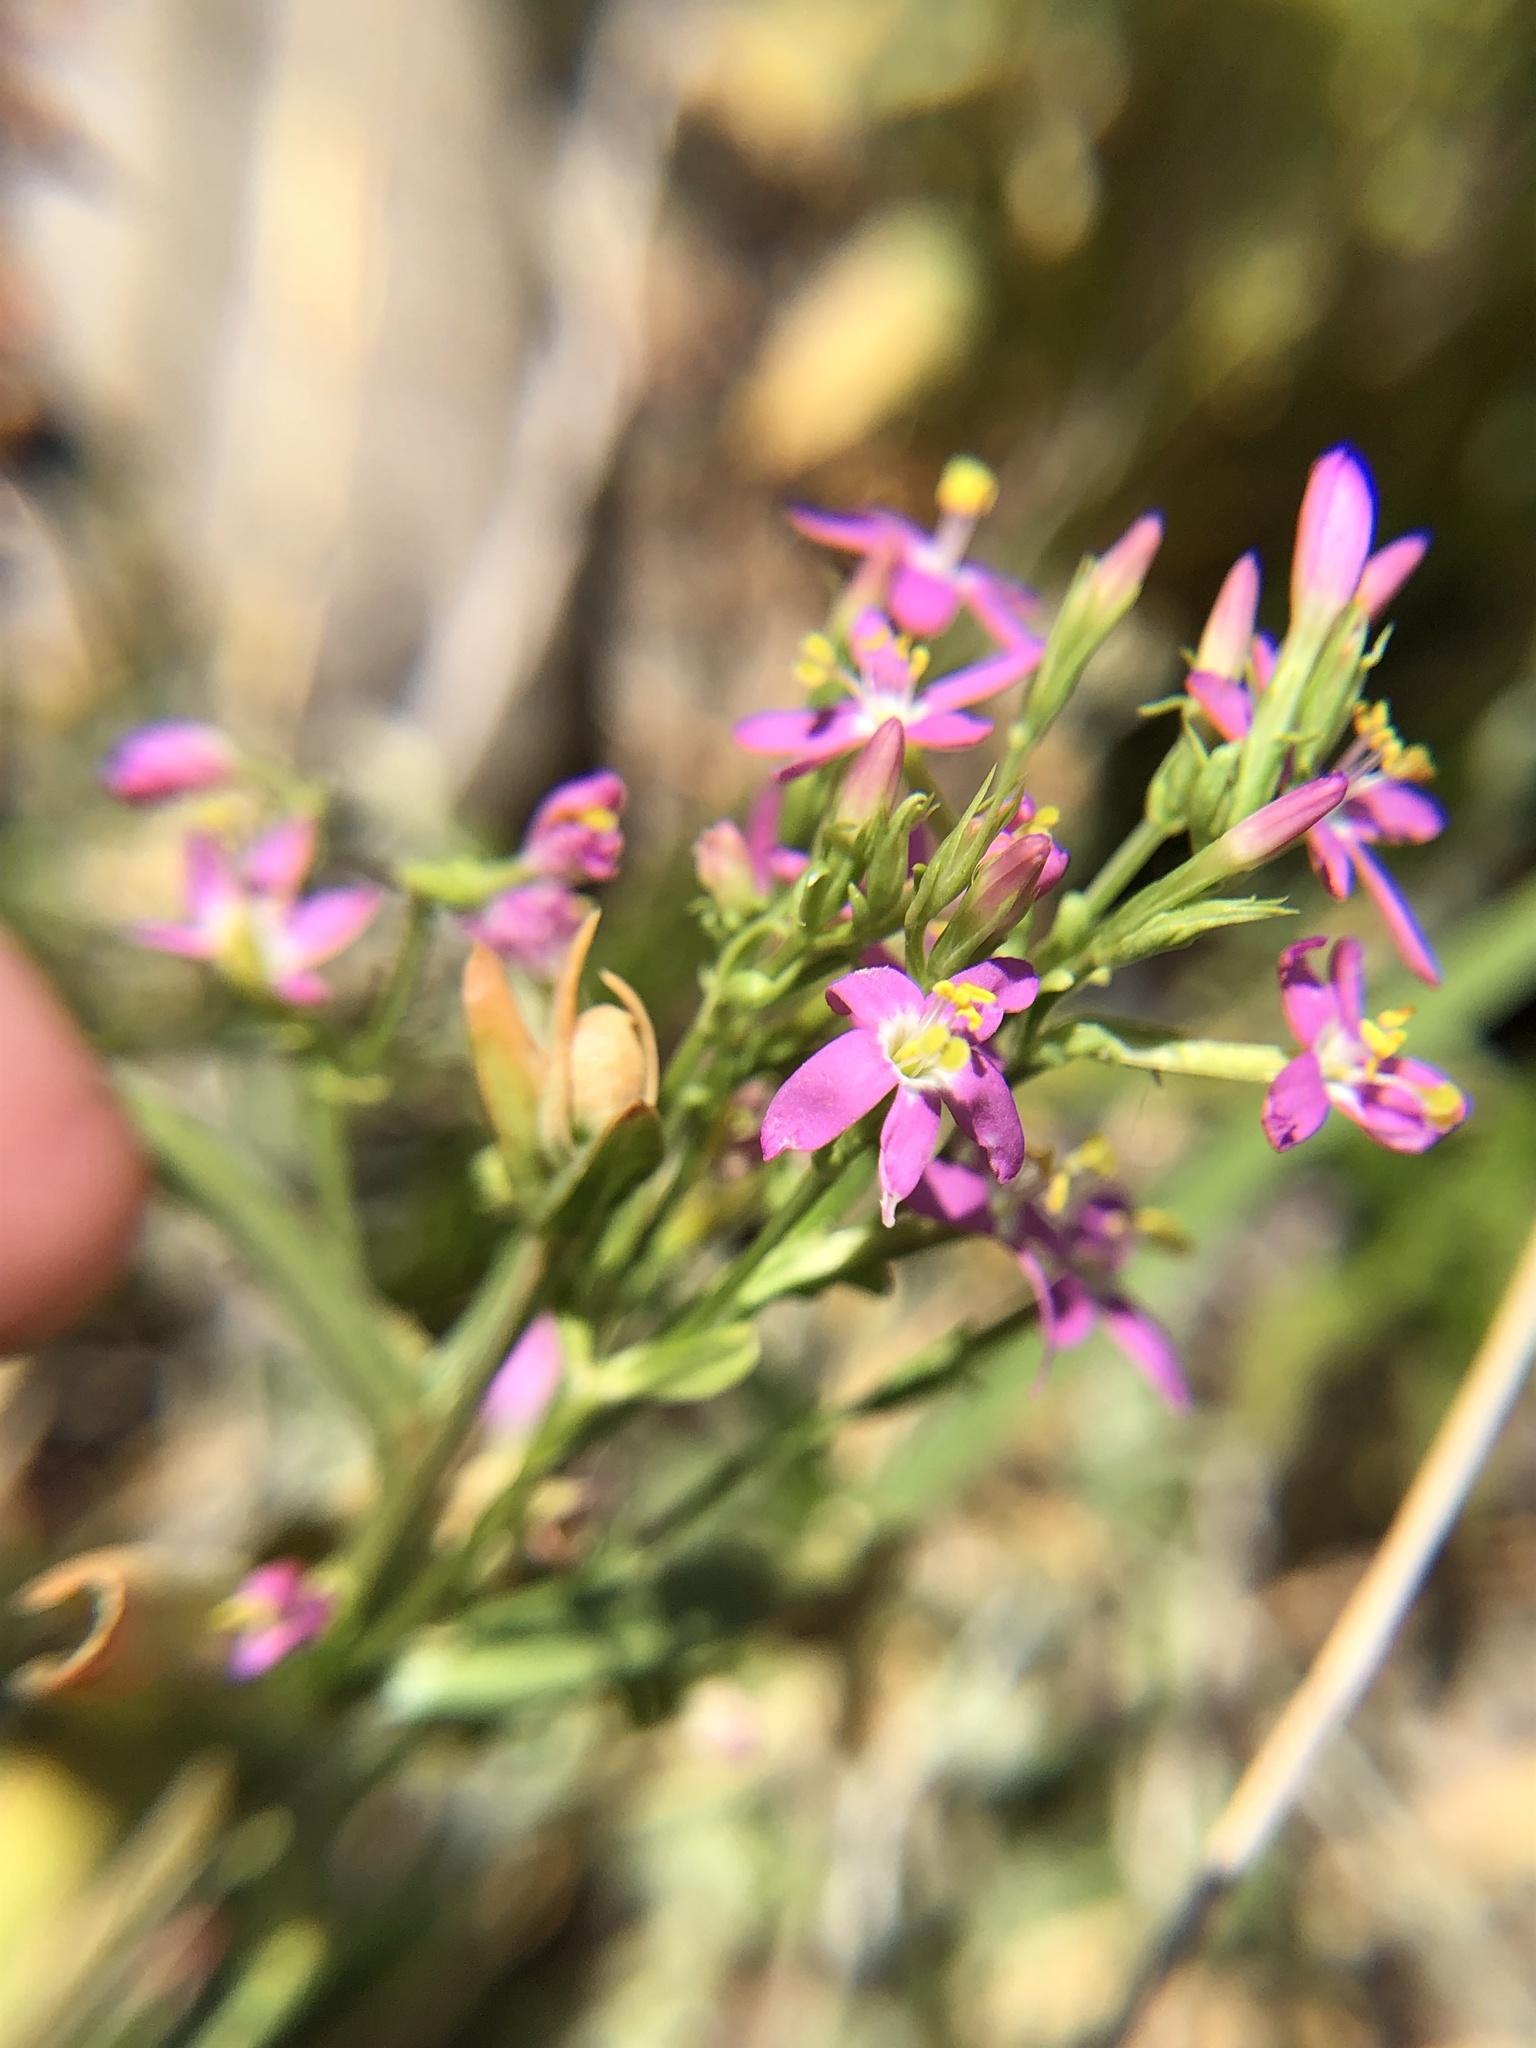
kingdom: Plantae
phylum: Tracheophyta
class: Magnoliopsida
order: Gentianales
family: Gentianaceae
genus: Zeltnera
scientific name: Zeltnera muhlenbergii
